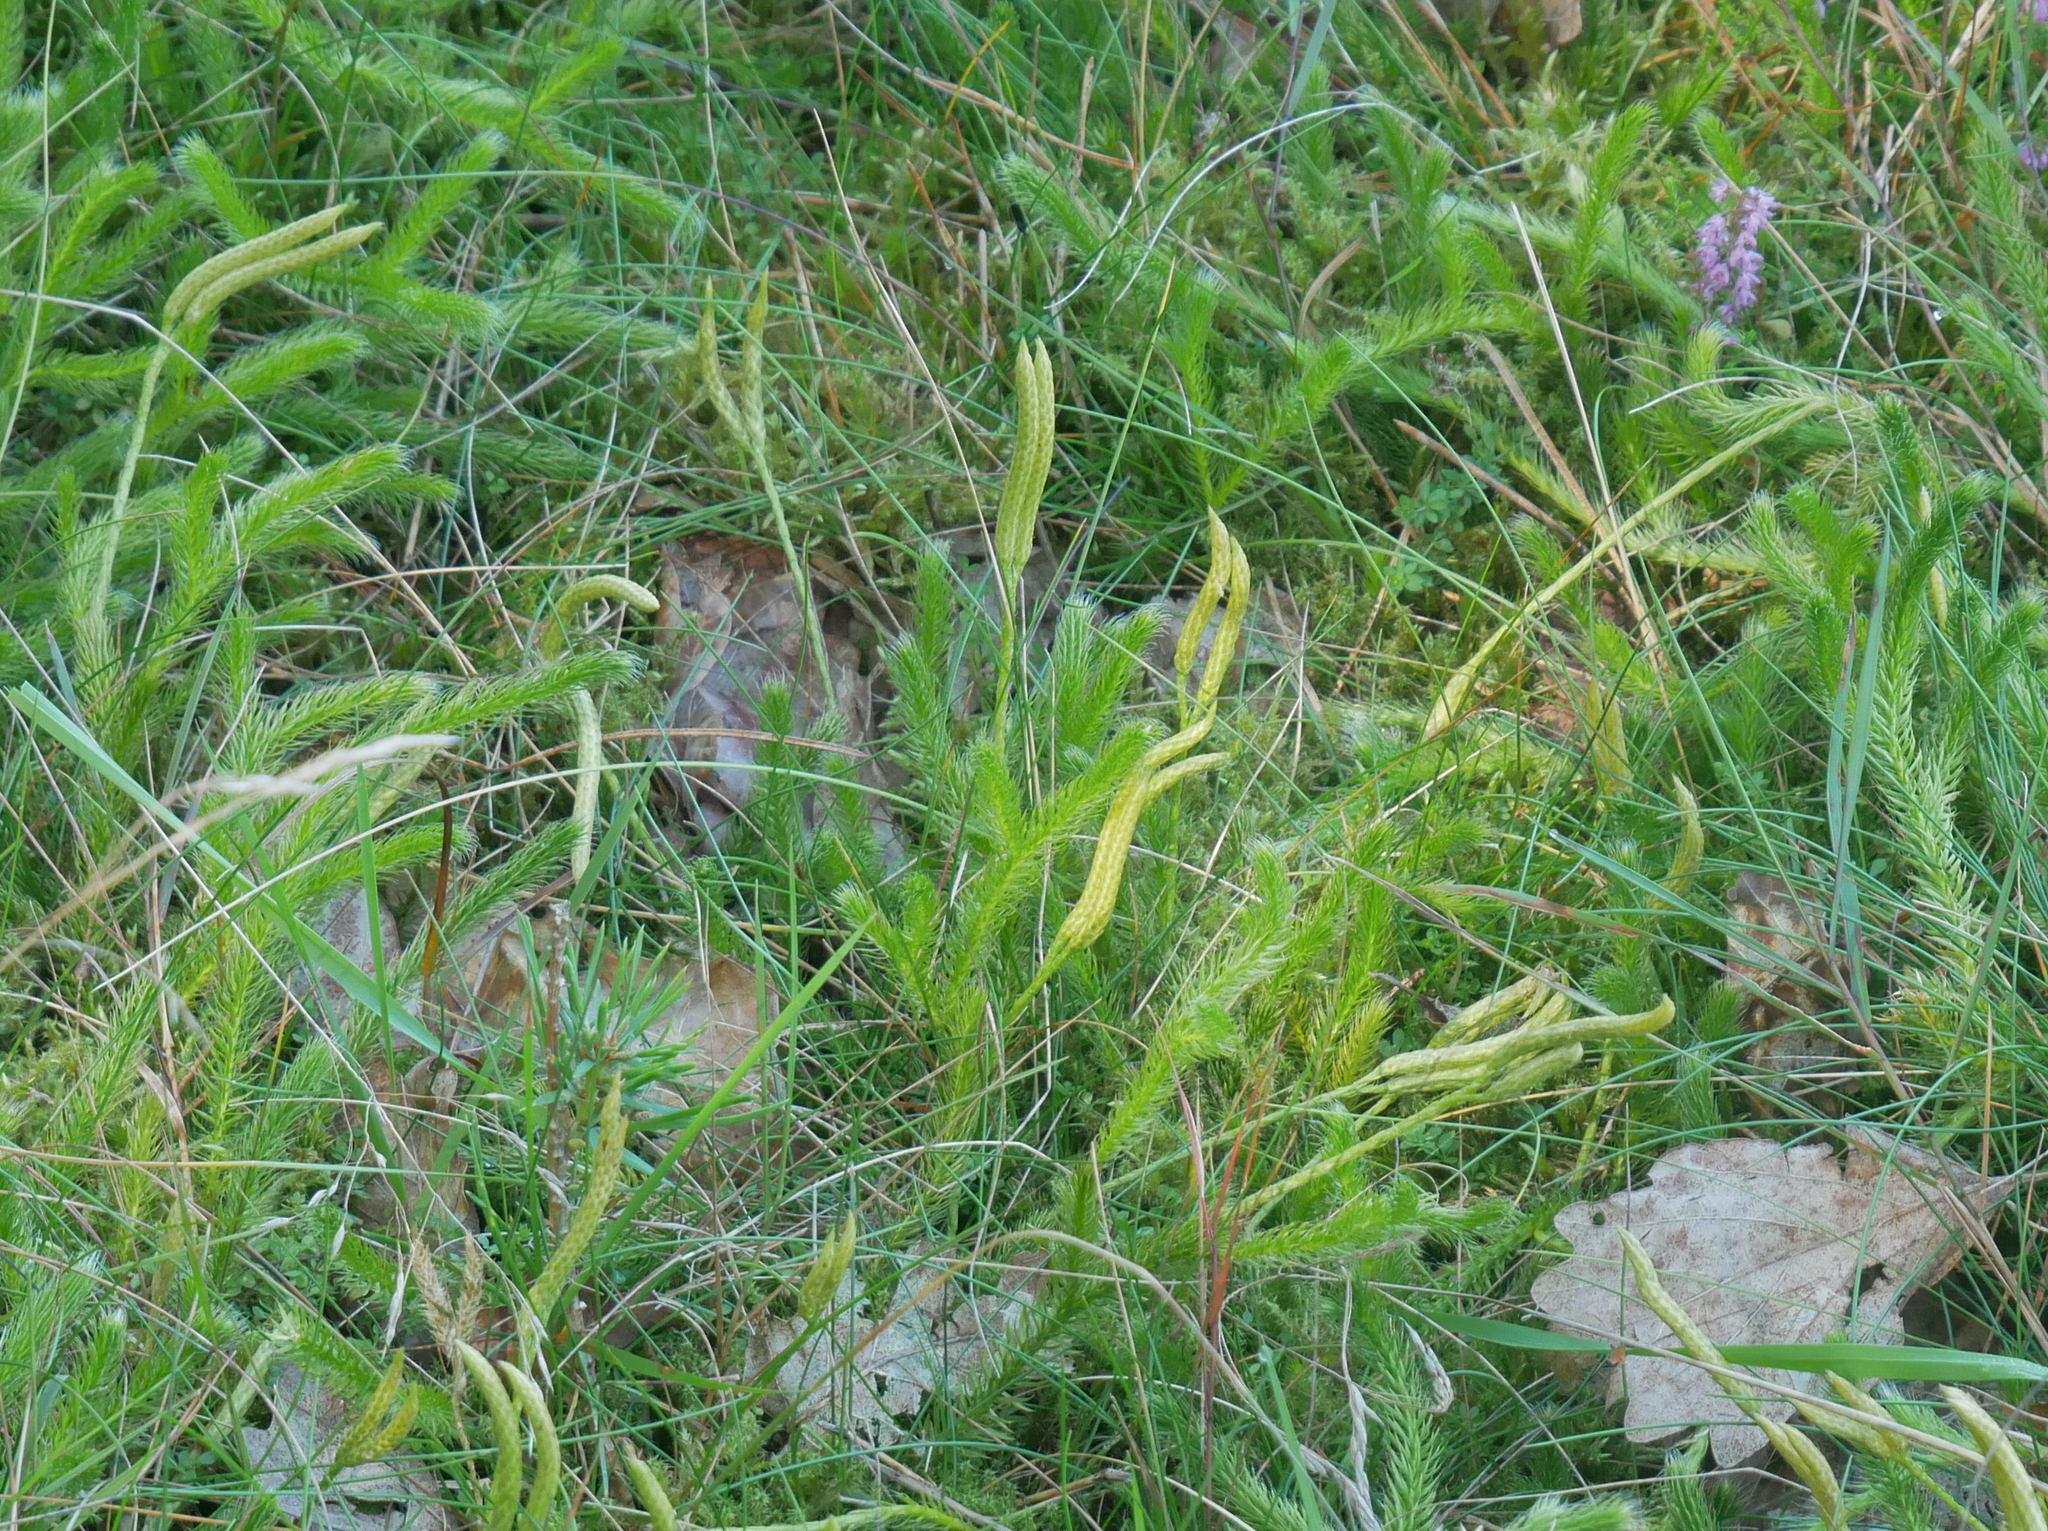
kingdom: Plantae
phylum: Tracheophyta
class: Lycopodiopsida
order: Lycopodiales
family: Lycopodiaceae
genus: Lycopodium
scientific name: Lycopodium clavatum
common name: Stag's-horn clubmoss
